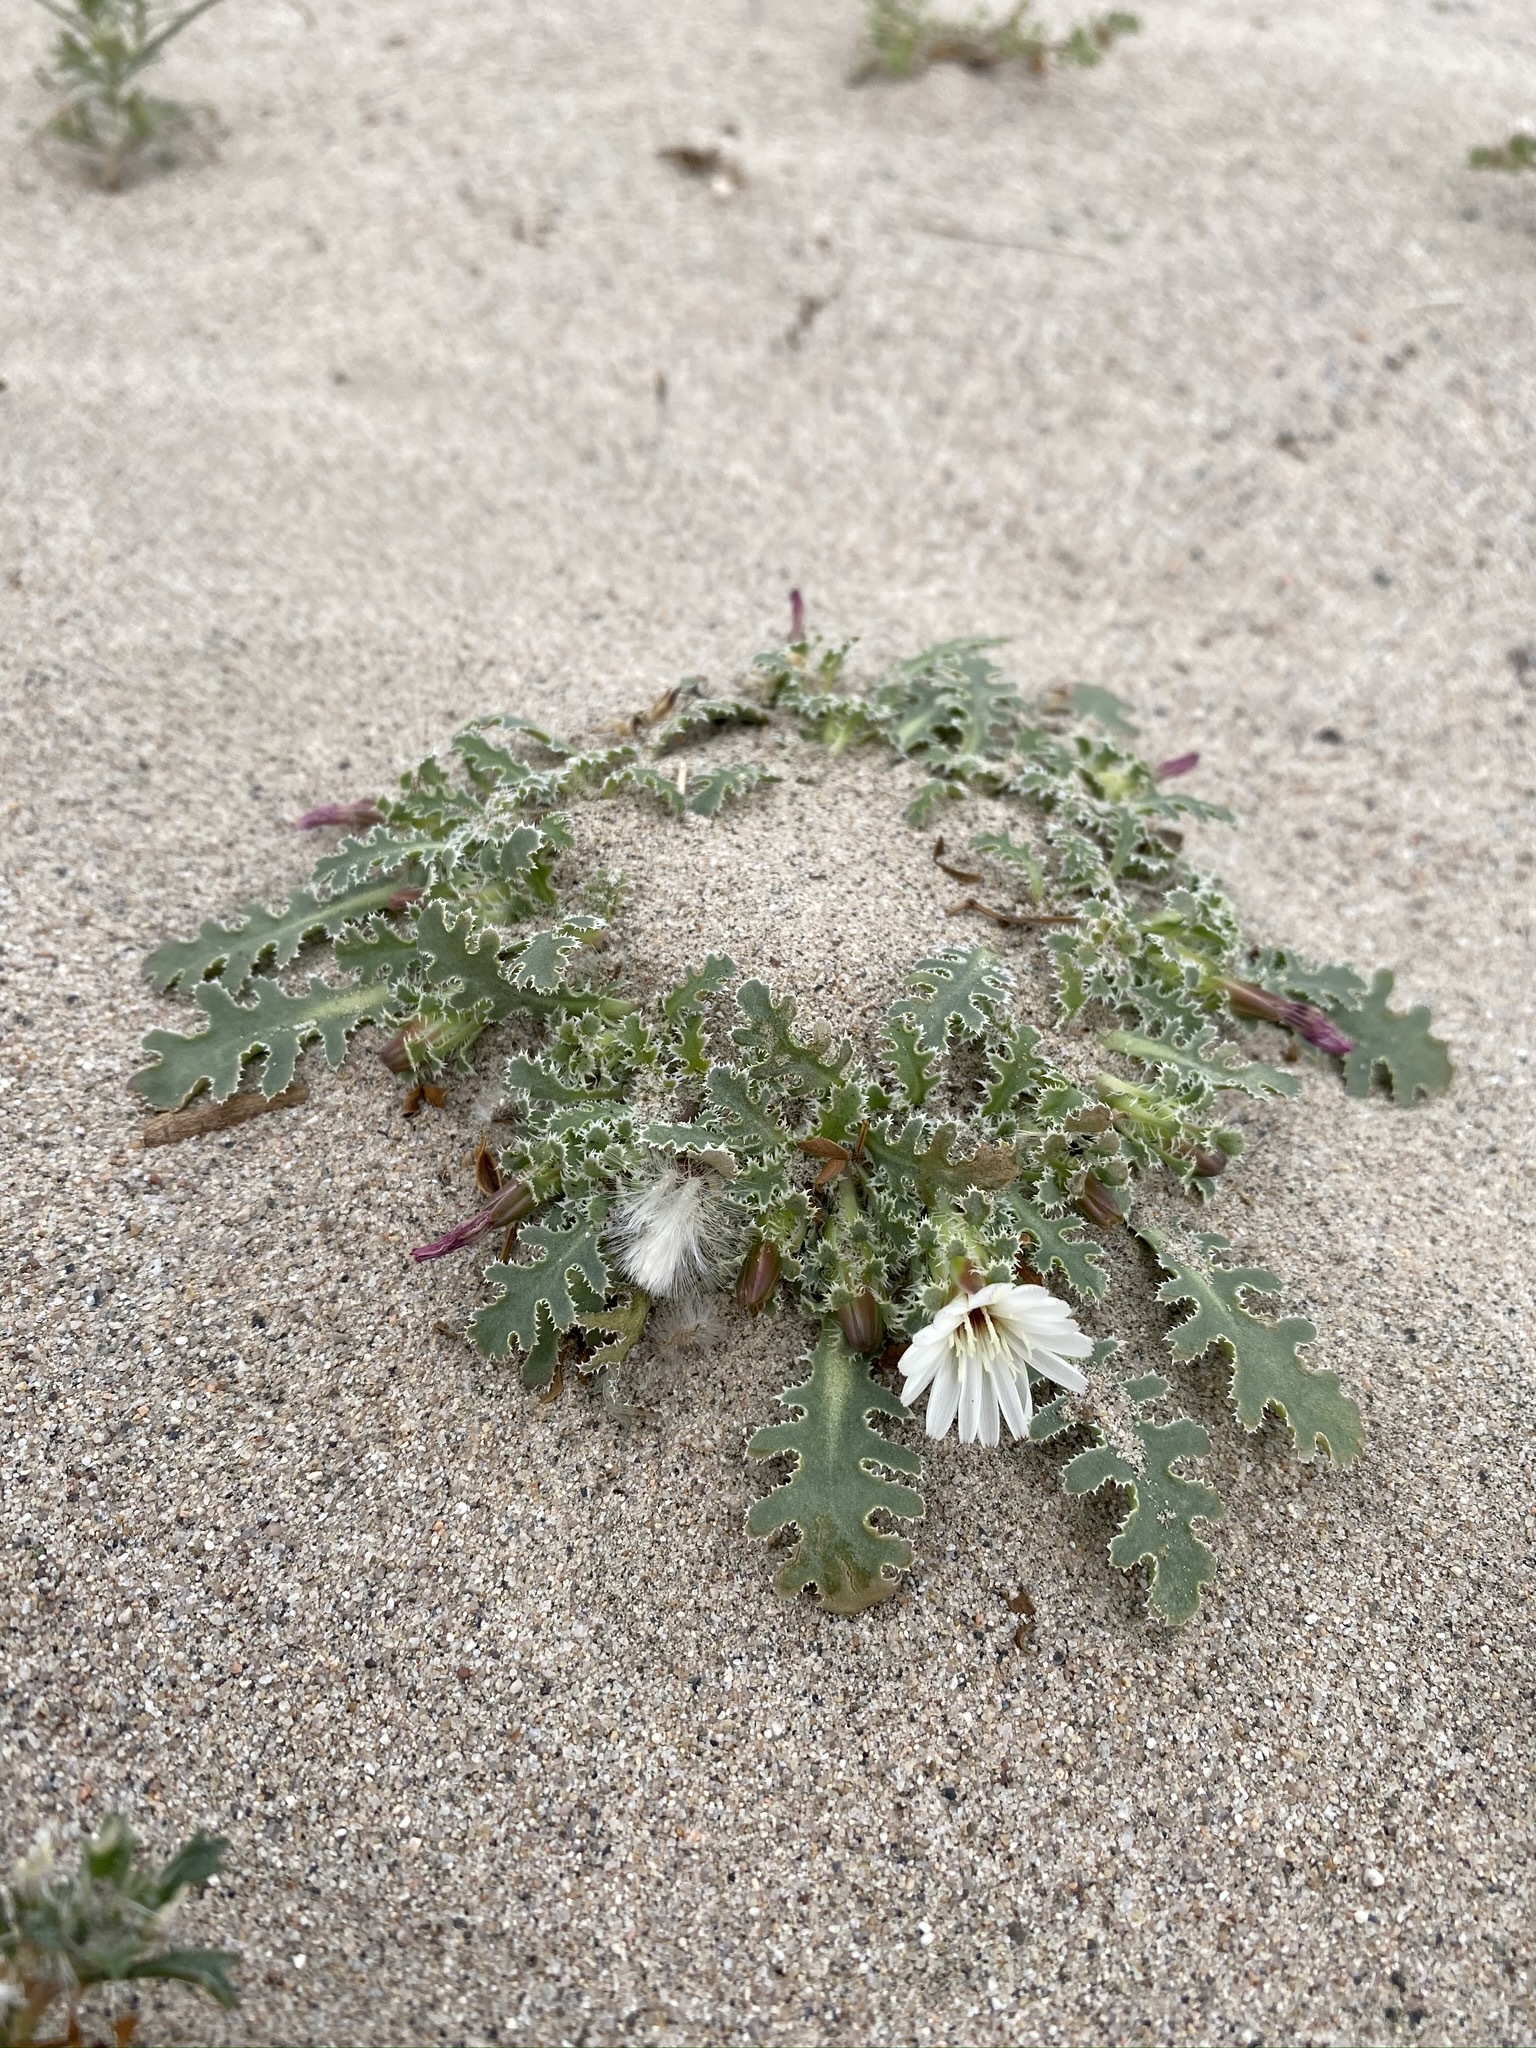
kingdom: Plantae
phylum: Tracheophyta
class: Magnoliopsida
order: Asterales
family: Asteraceae
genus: Glyptopleura
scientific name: Glyptopleura marginata
